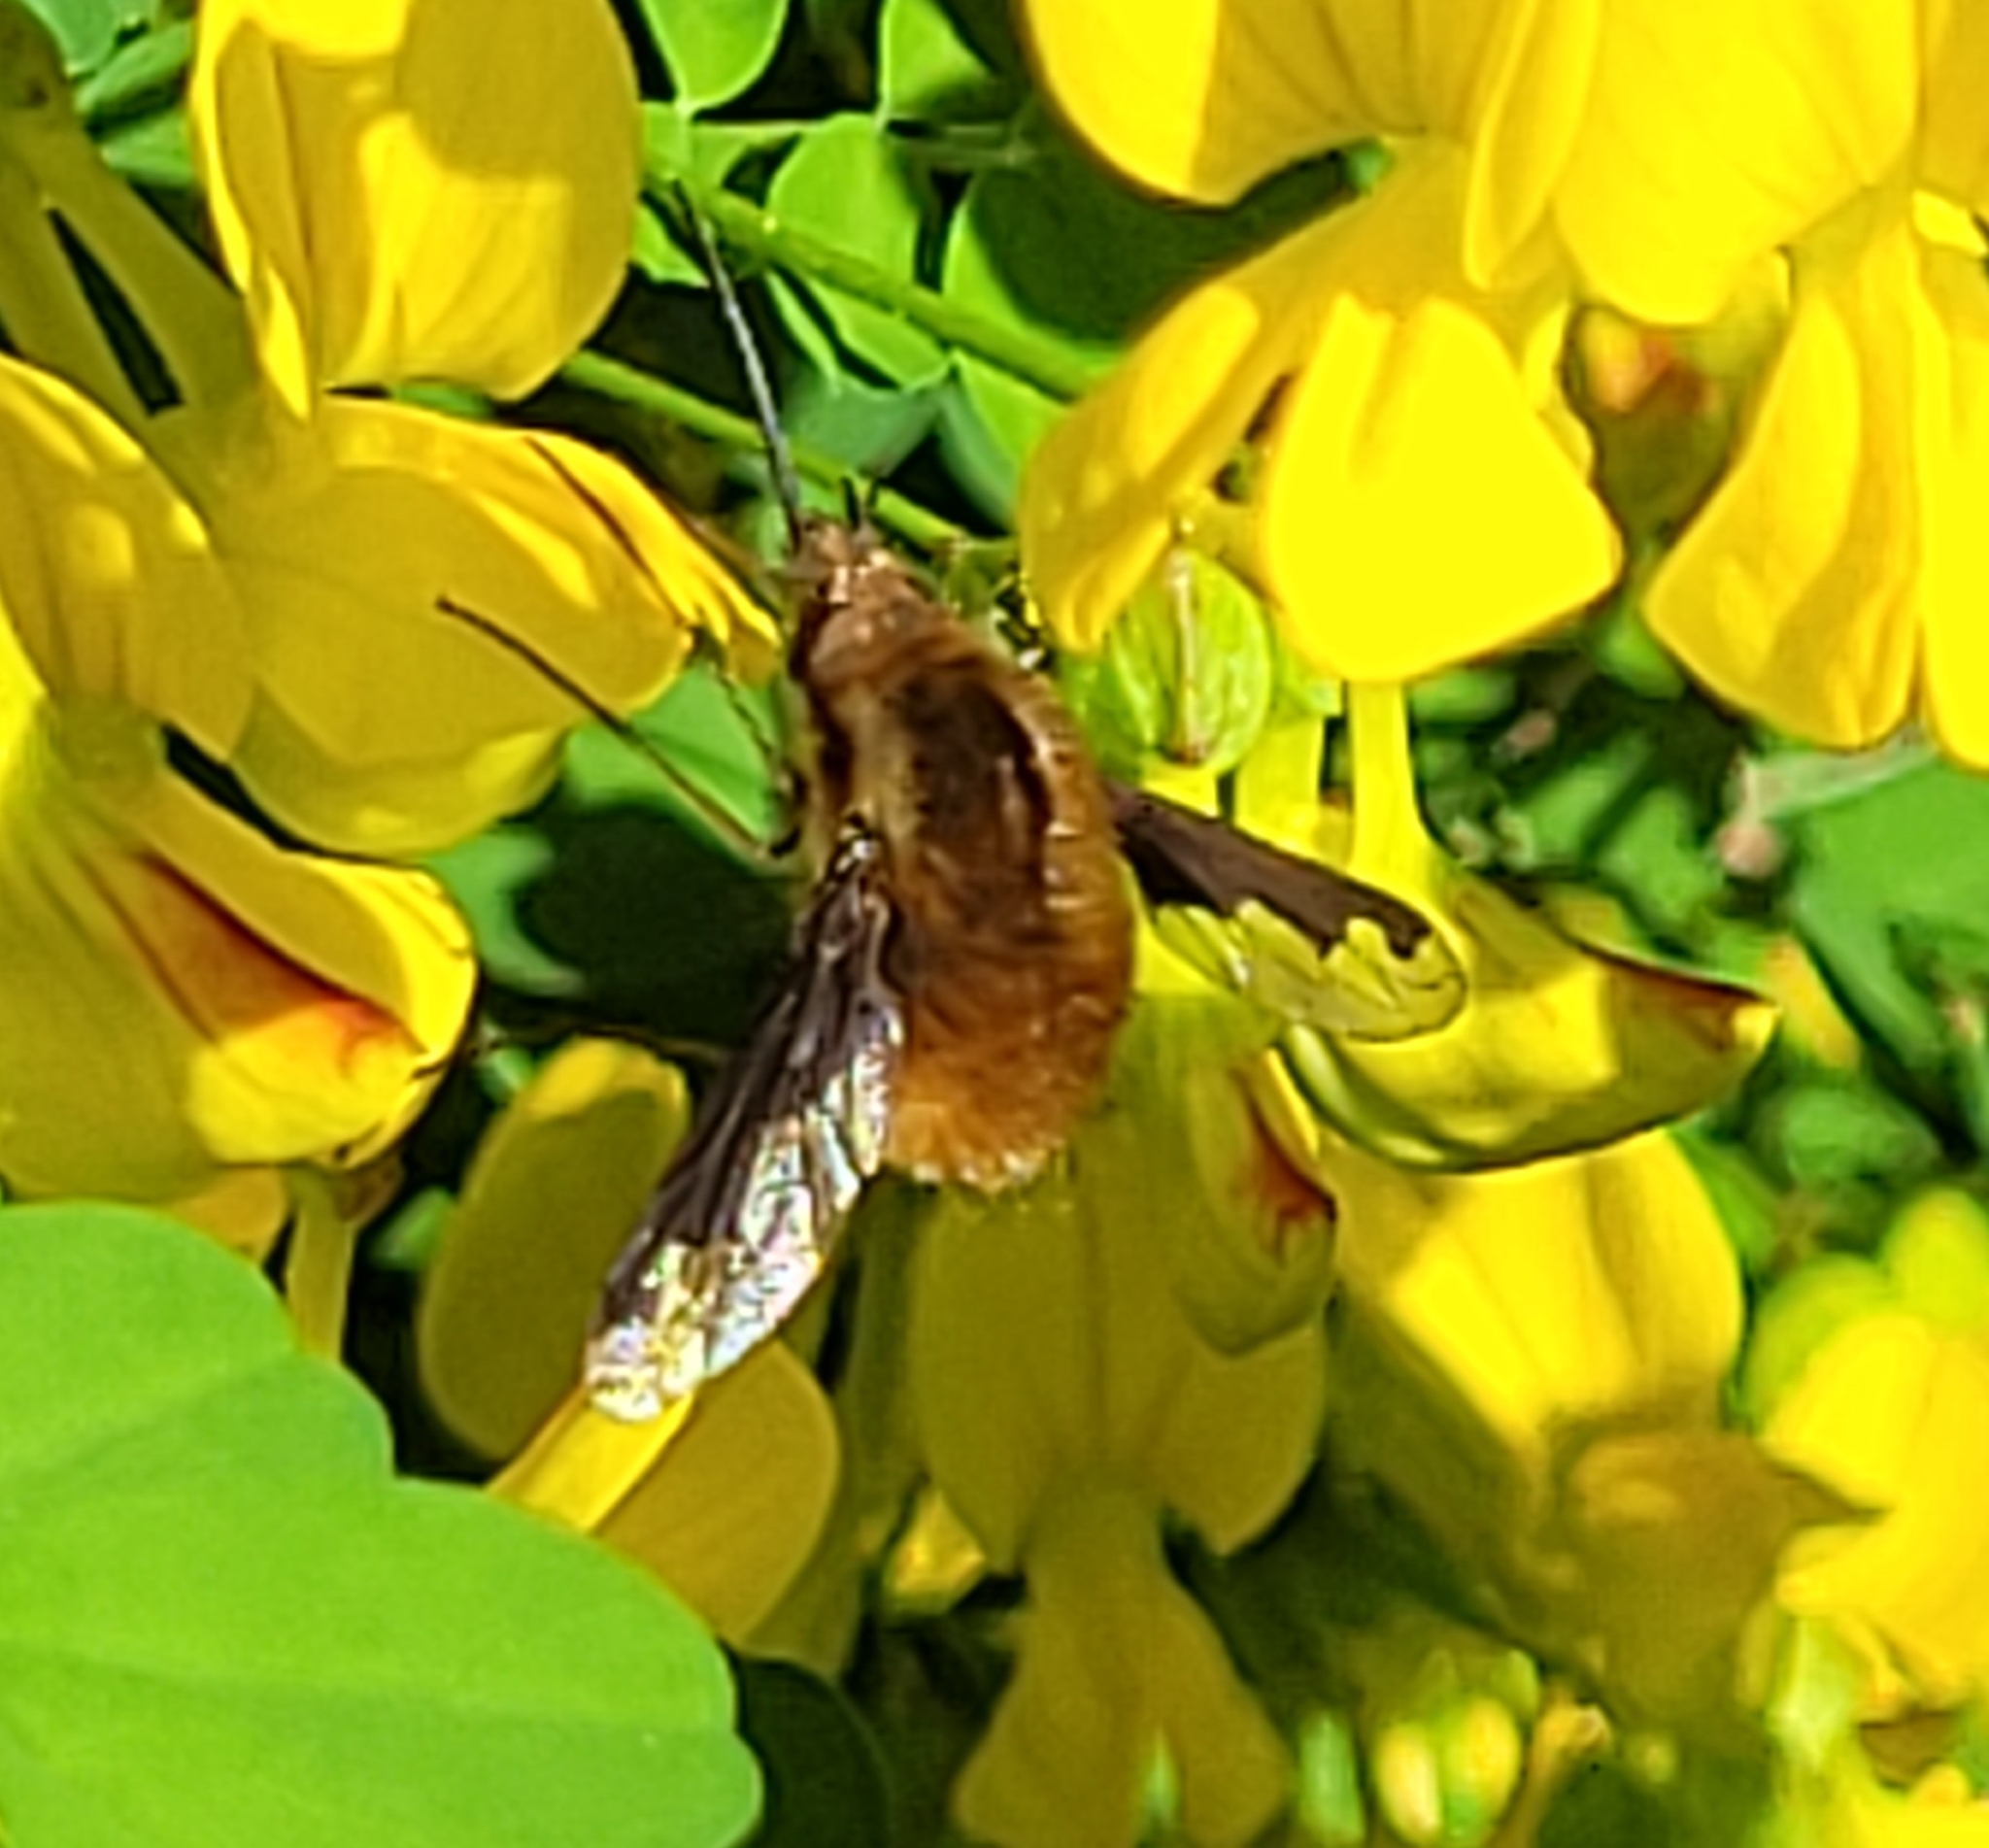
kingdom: Animalia
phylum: Arthropoda
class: Insecta
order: Diptera
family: Bombyliidae
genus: Bombylius
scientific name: Bombylius major
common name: Bee fly
